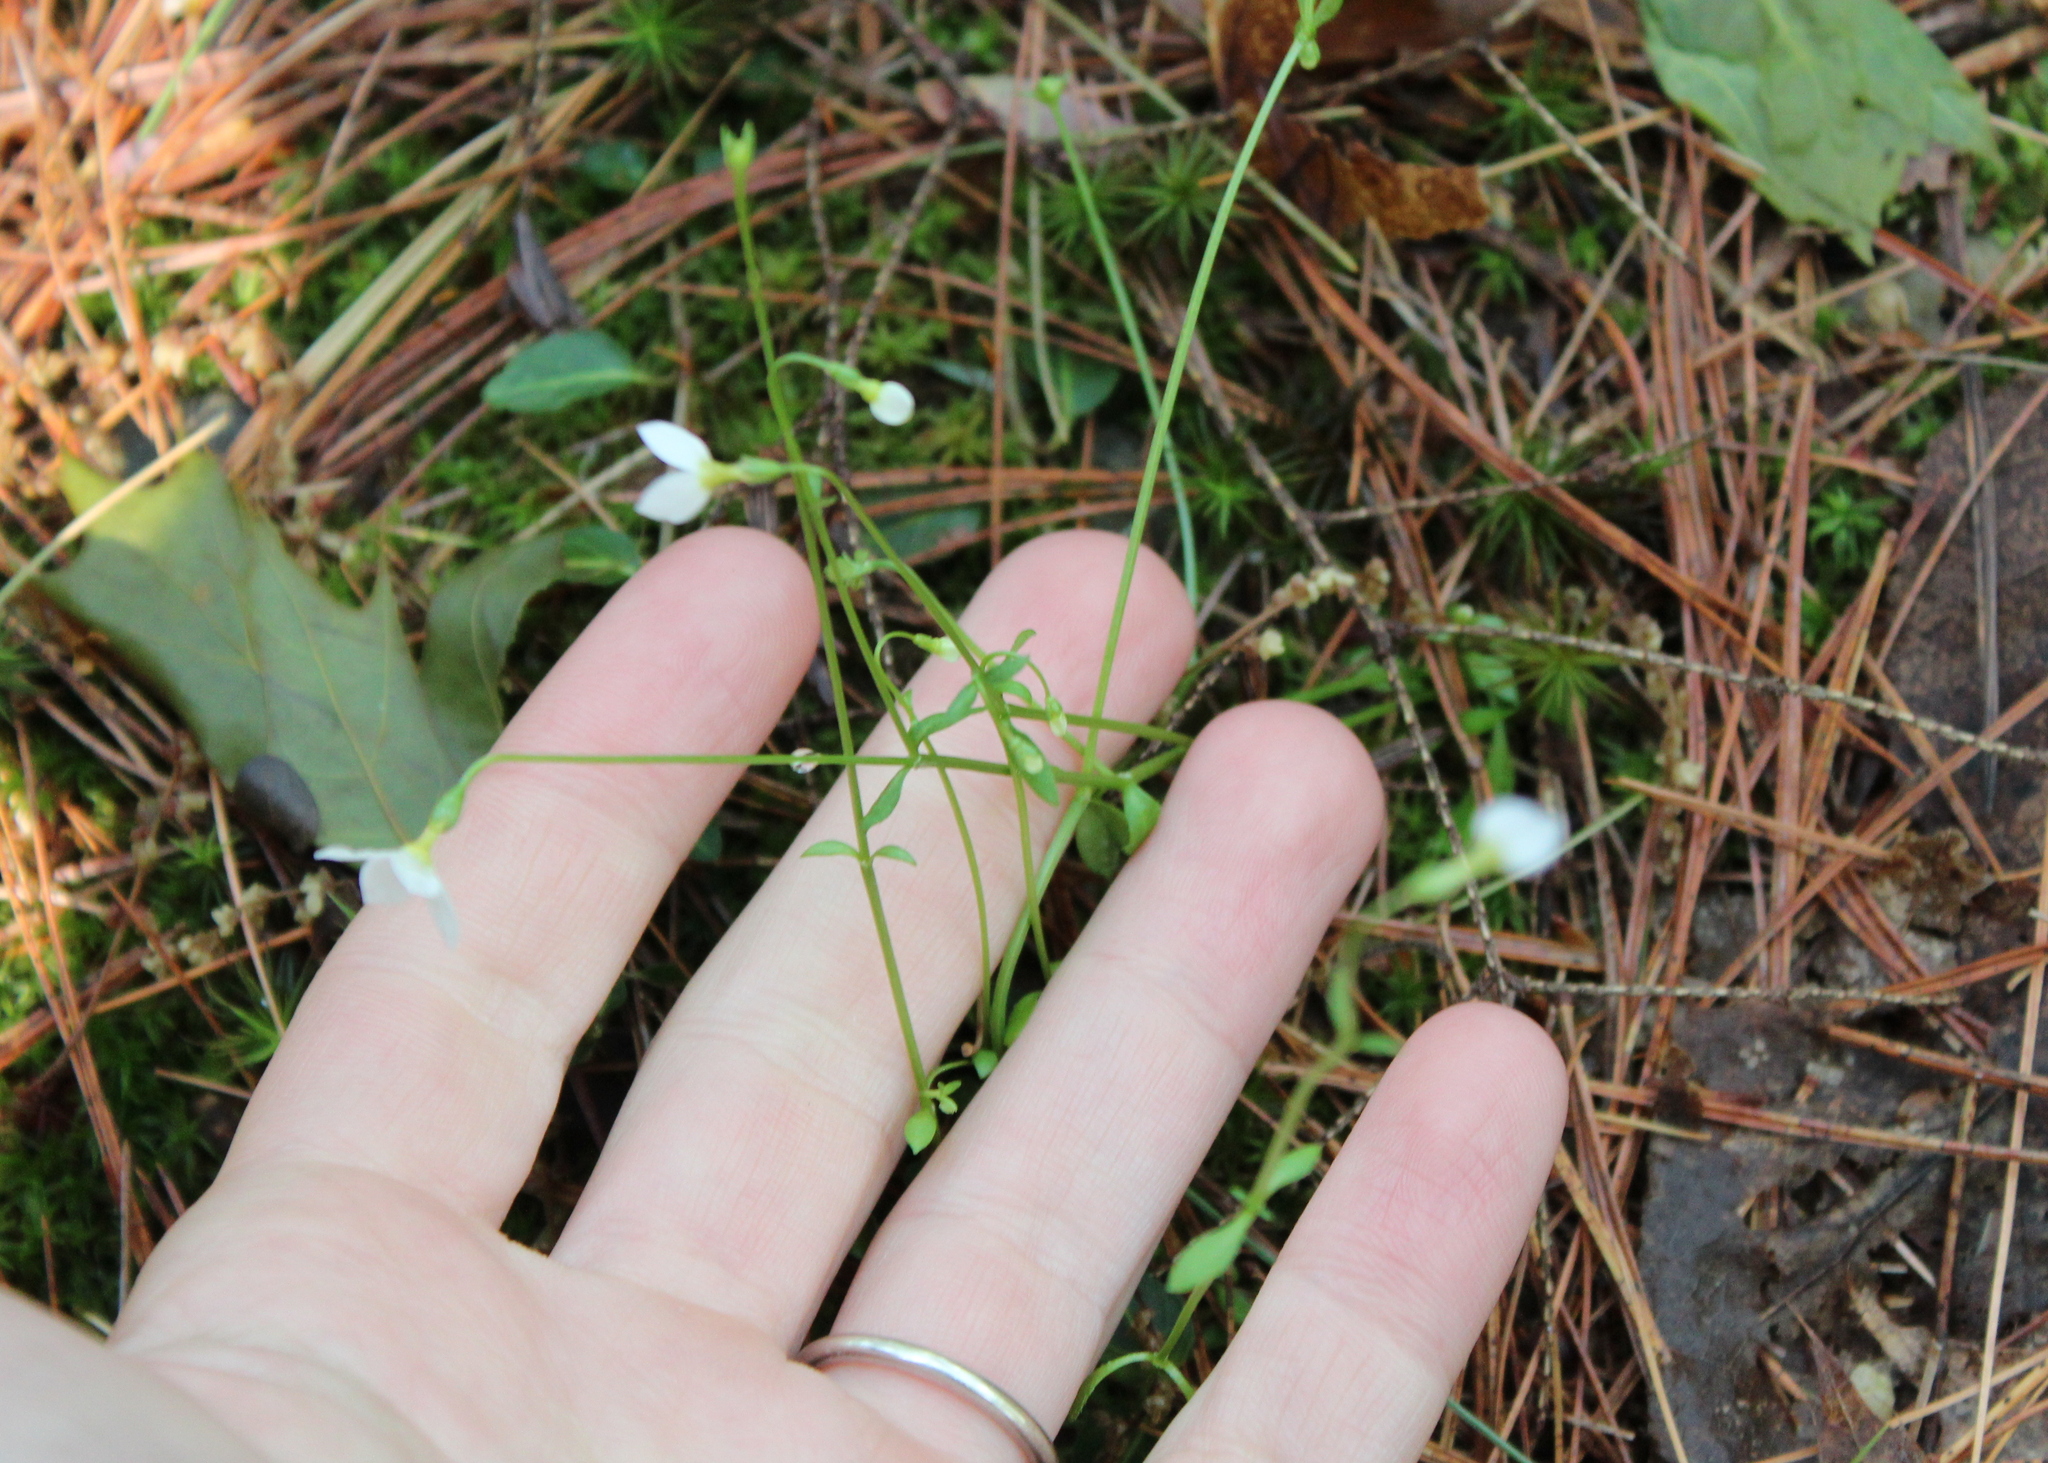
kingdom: Plantae
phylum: Tracheophyta
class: Magnoliopsida
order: Gentianales
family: Rubiaceae
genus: Houstonia
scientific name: Houstonia caerulea
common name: Bluets
